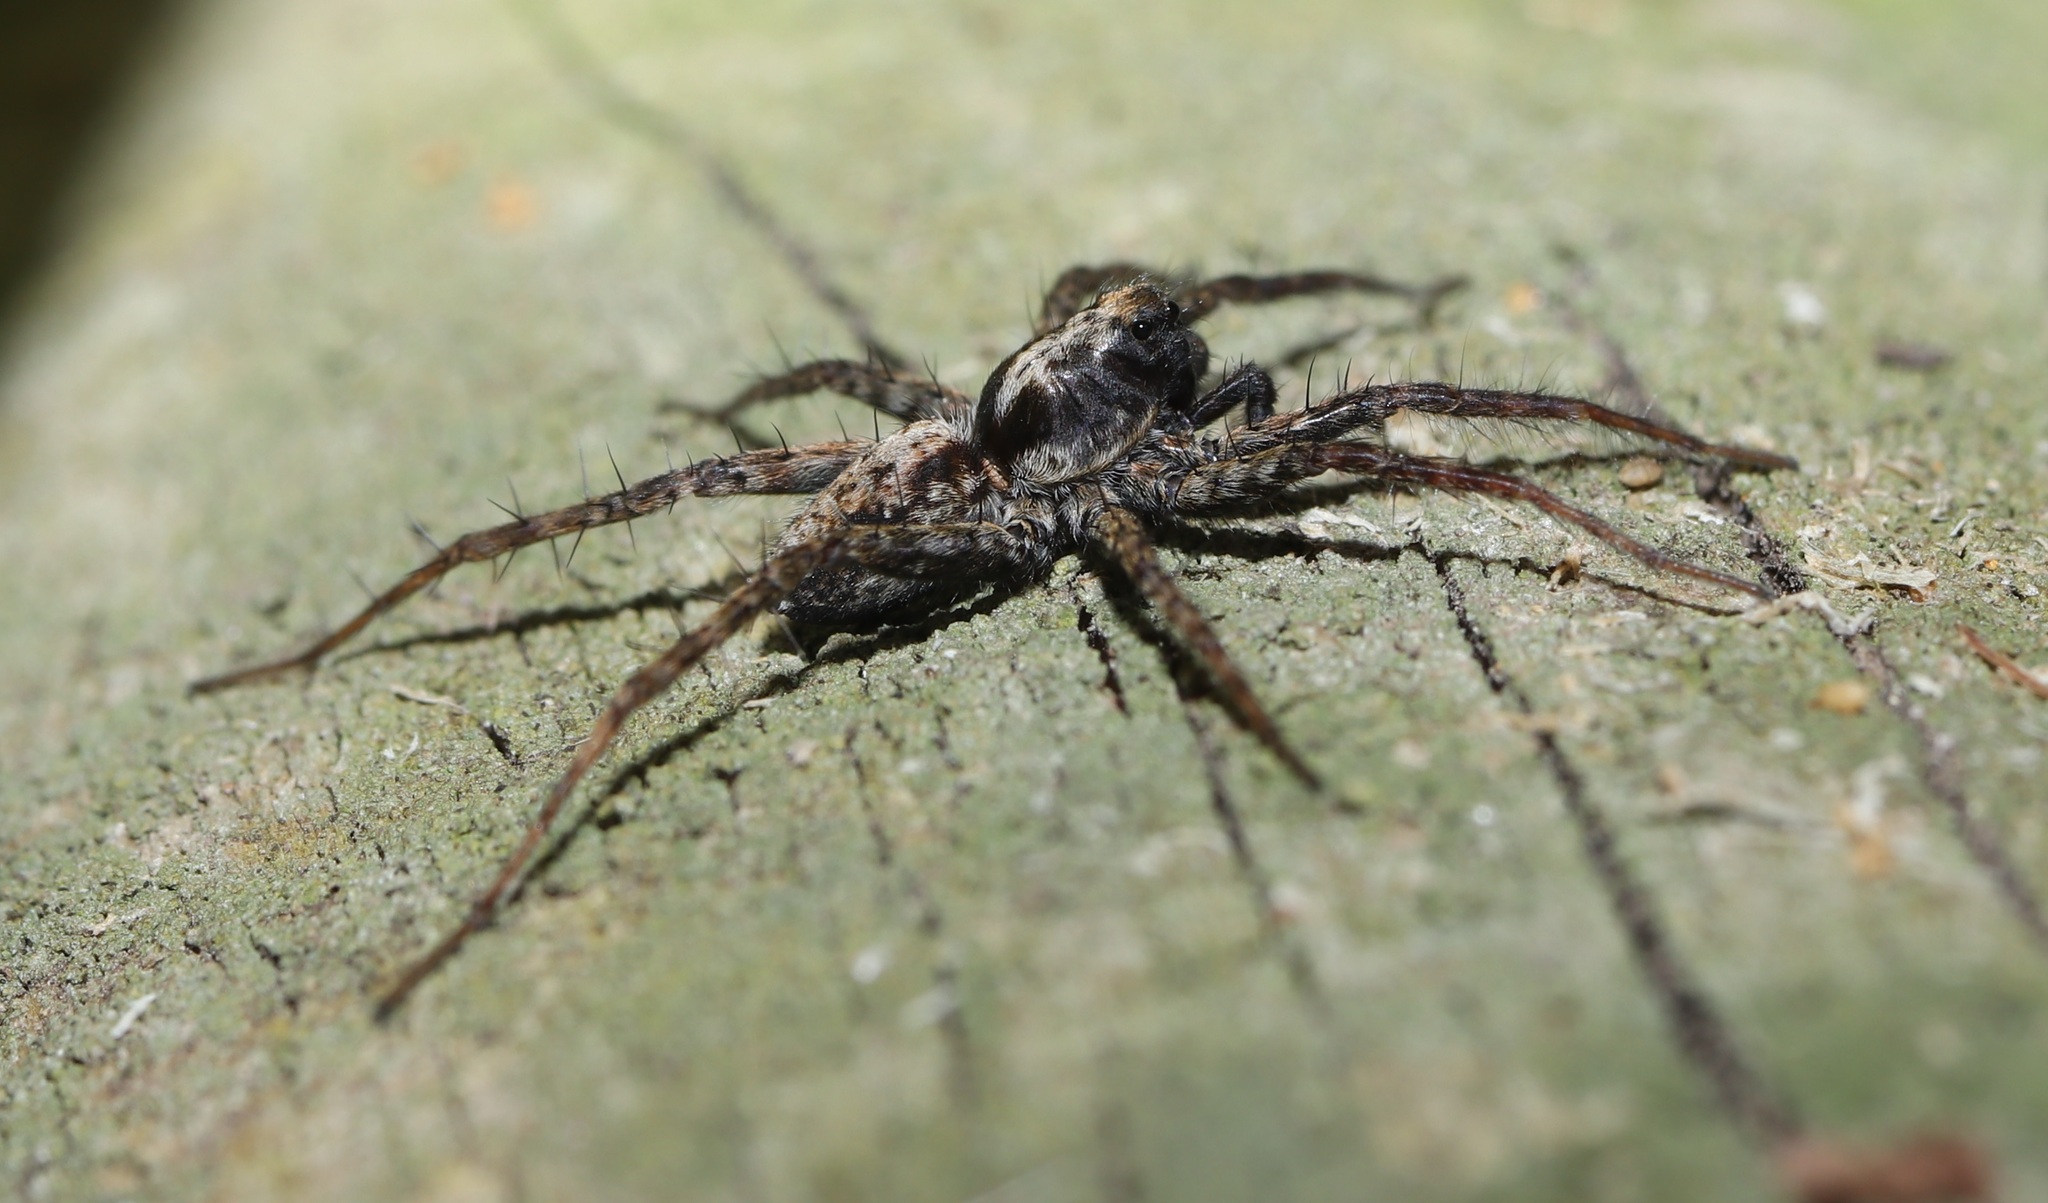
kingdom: Animalia
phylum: Arthropoda
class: Arachnida
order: Araneae
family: Lycosidae
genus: Pardosa
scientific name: Pardosa astrigera
